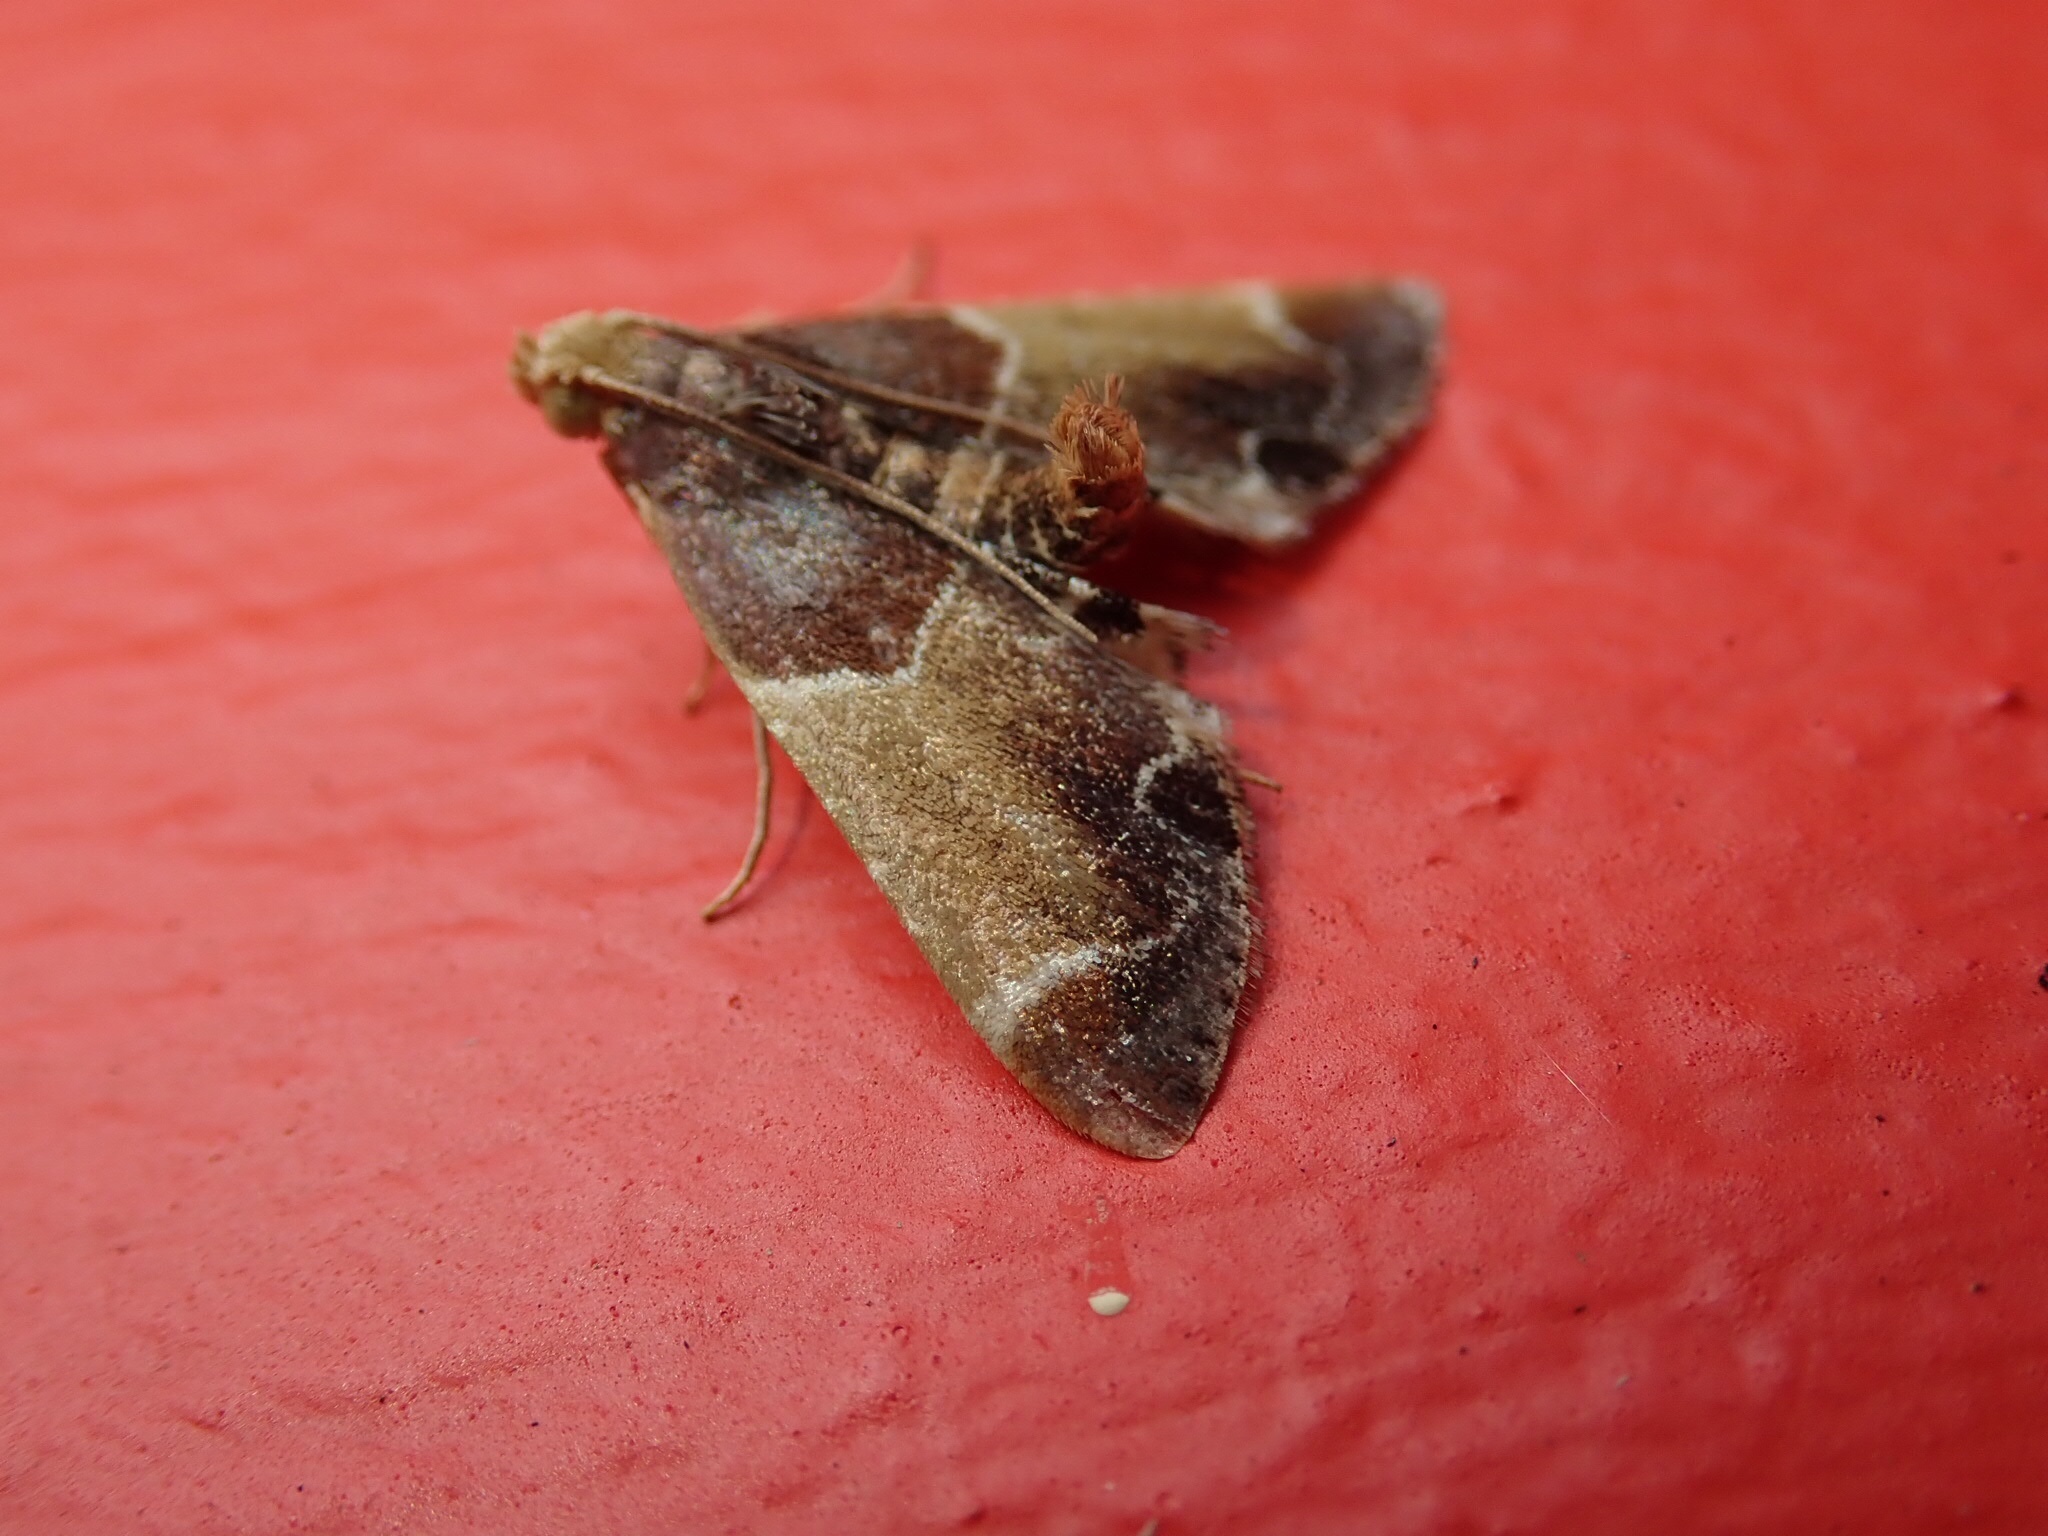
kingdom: Animalia
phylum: Arthropoda
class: Insecta
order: Lepidoptera
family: Pyralidae
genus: Pyralis
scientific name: Pyralis farinalis
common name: Meal moth
